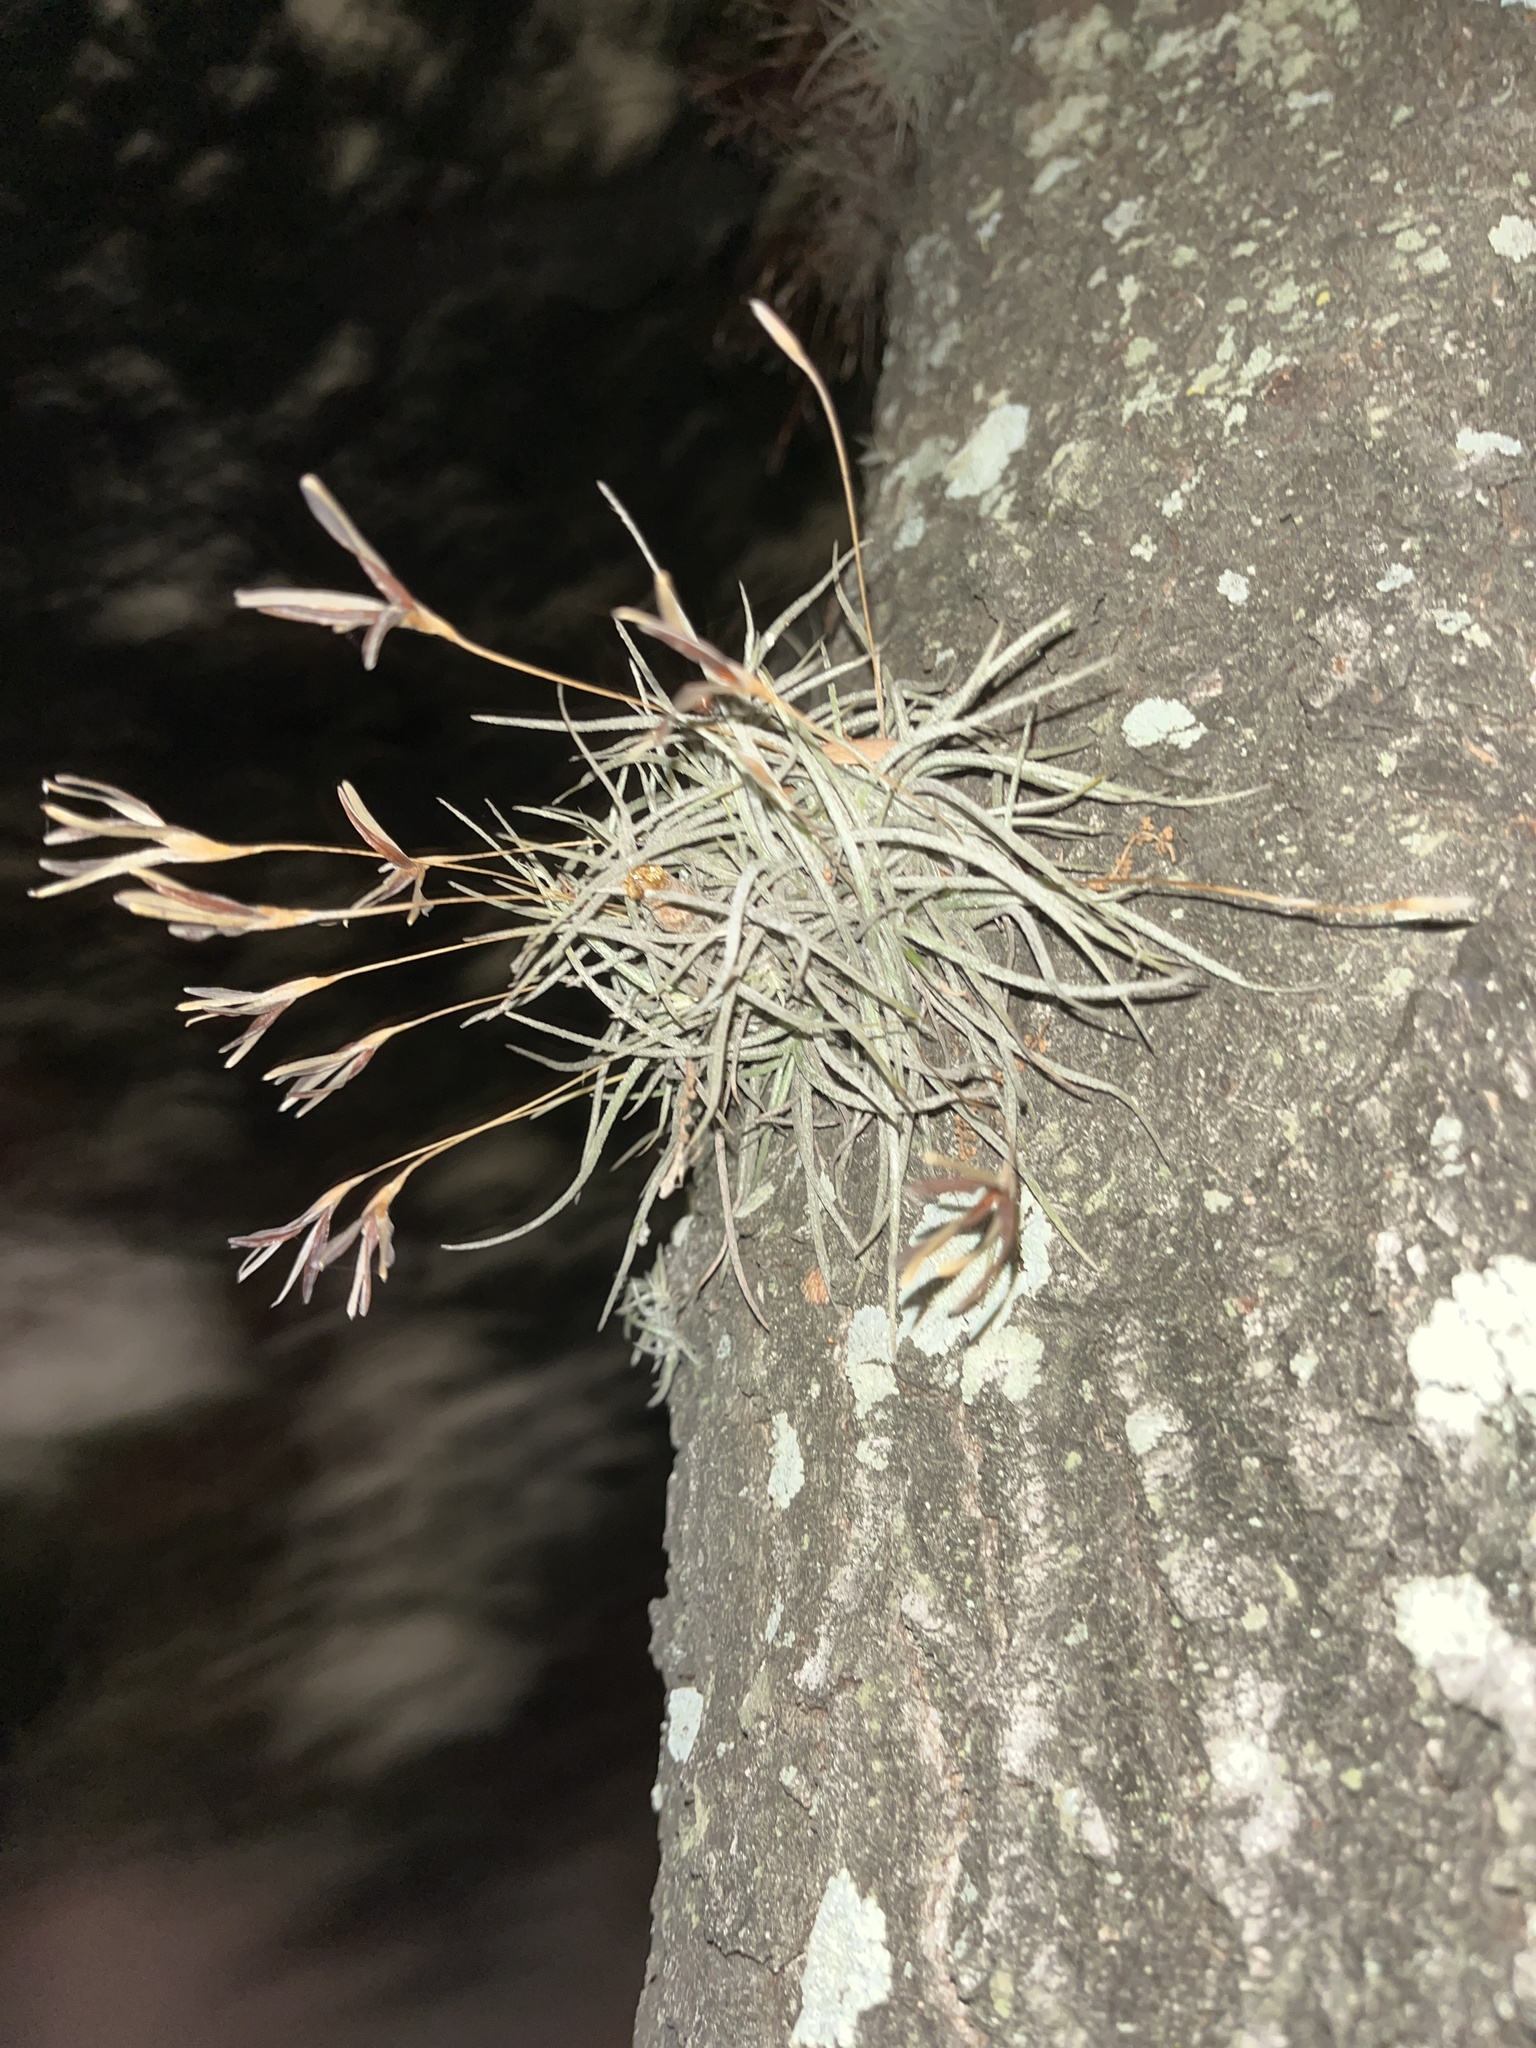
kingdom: Plantae
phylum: Tracheophyta
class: Liliopsida
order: Poales
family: Bromeliaceae
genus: Tillandsia
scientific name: Tillandsia recurvata
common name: Small ballmoss
